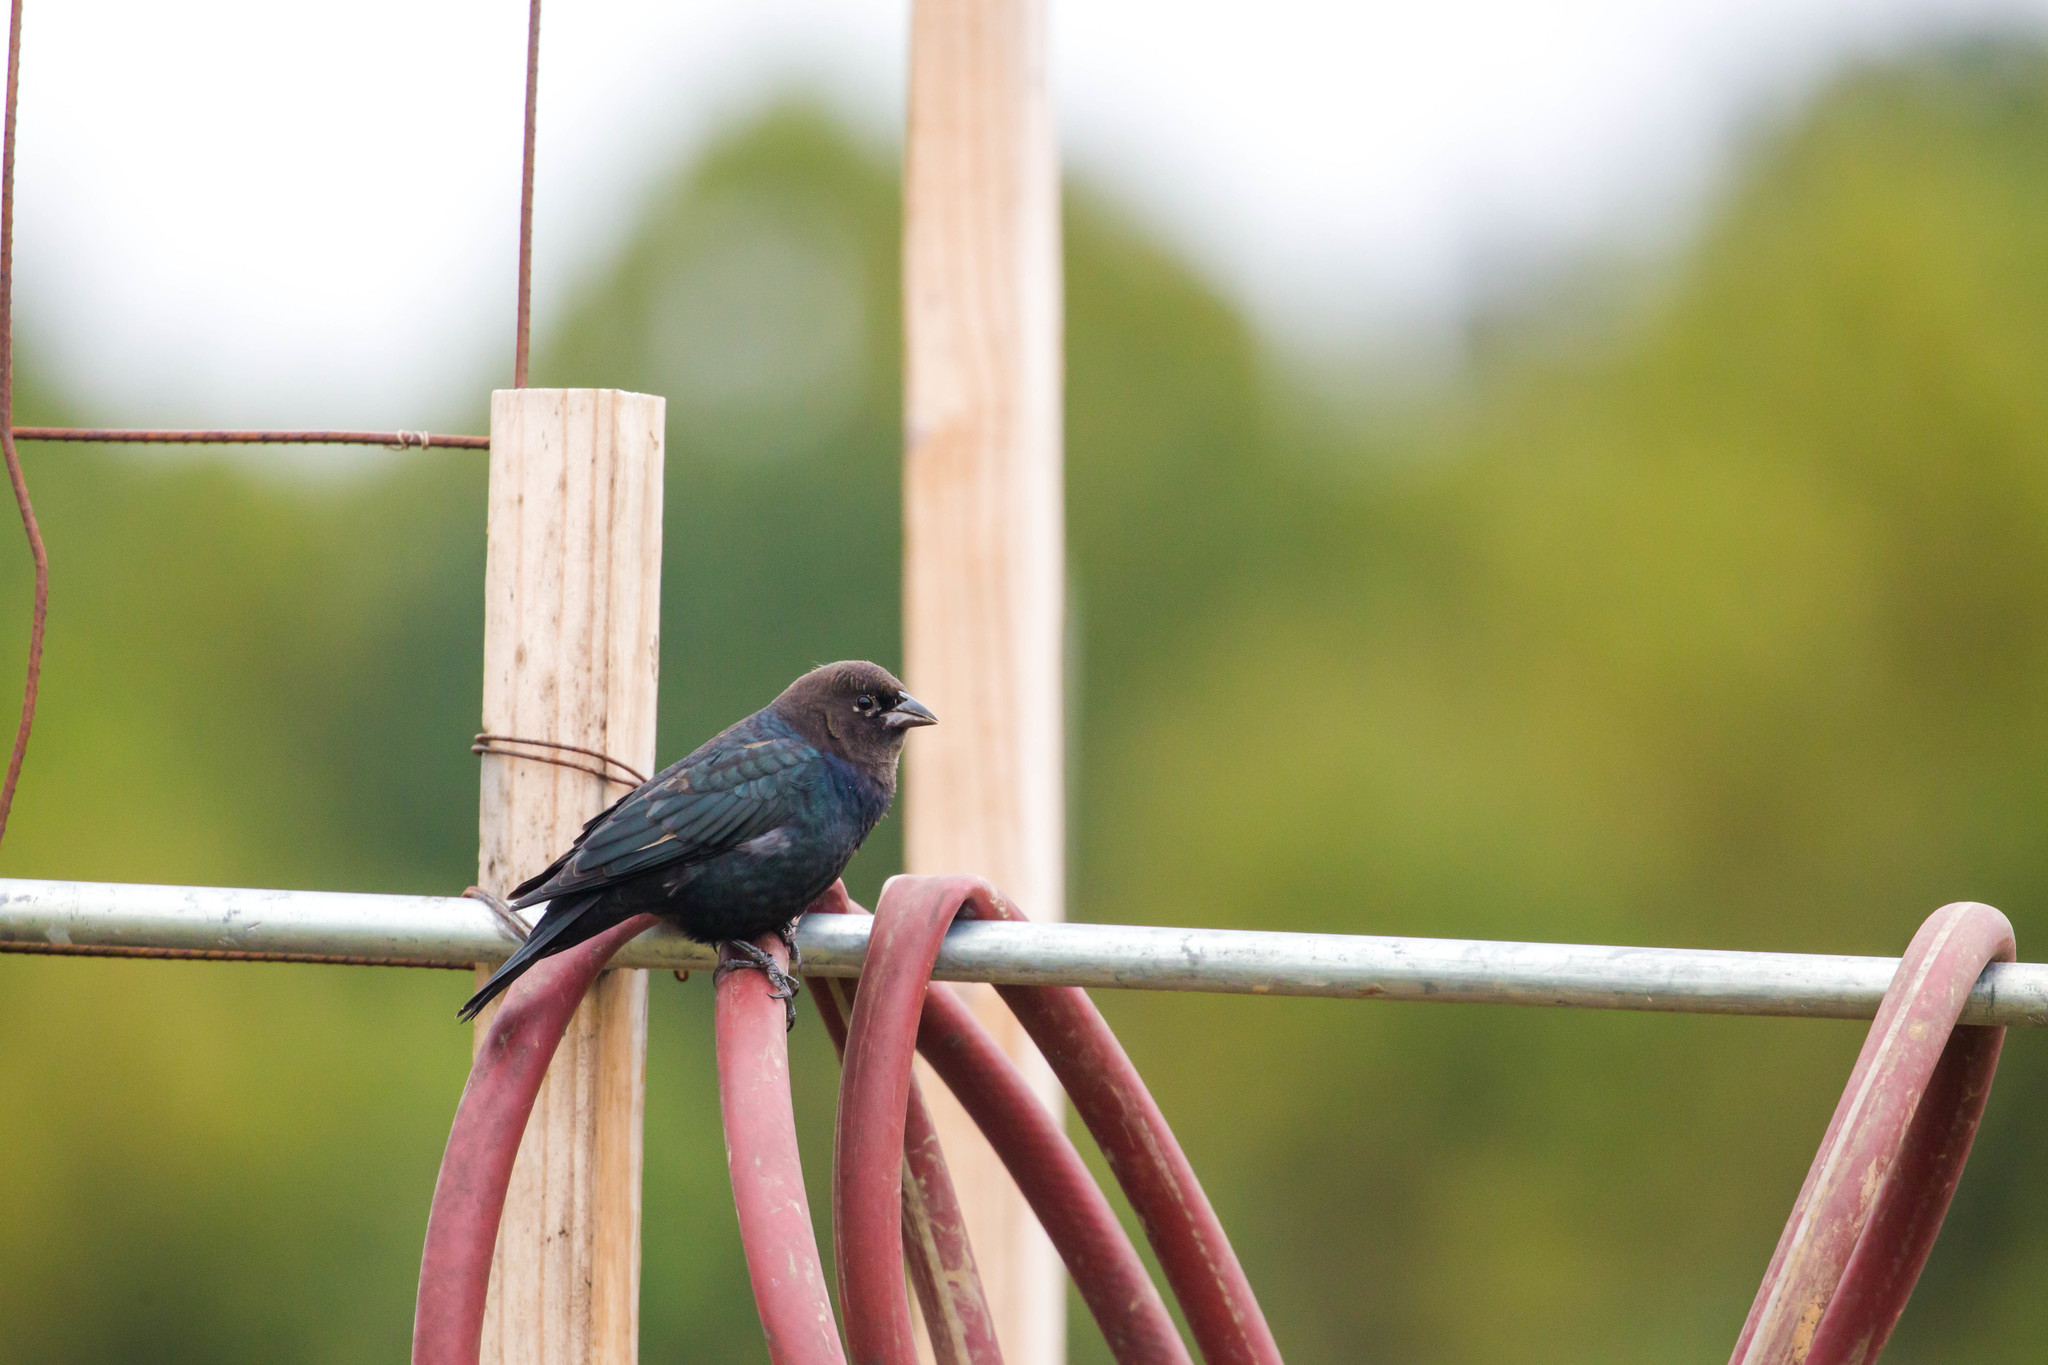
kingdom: Animalia
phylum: Chordata
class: Aves
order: Passeriformes
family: Icteridae
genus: Molothrus
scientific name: Molothrus ater
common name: Brown-headed cowbird
